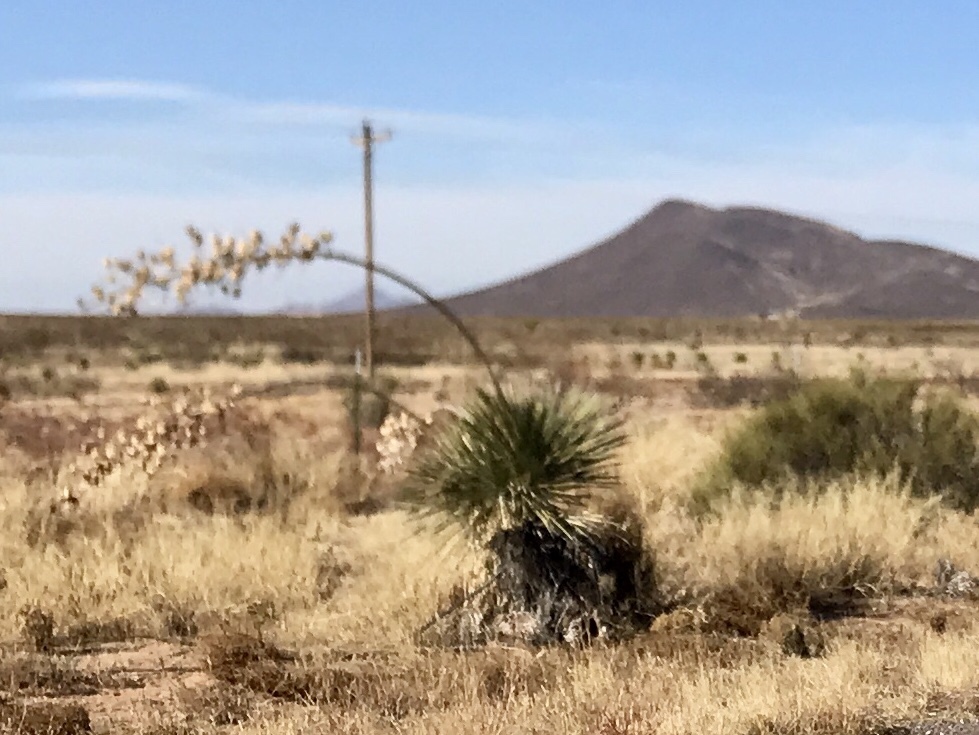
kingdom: Plantae
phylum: Tracheophyta
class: Liliopsida
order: Asparagales
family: Asparagaceae
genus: Yucca
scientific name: Yucca elata
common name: Palmella
